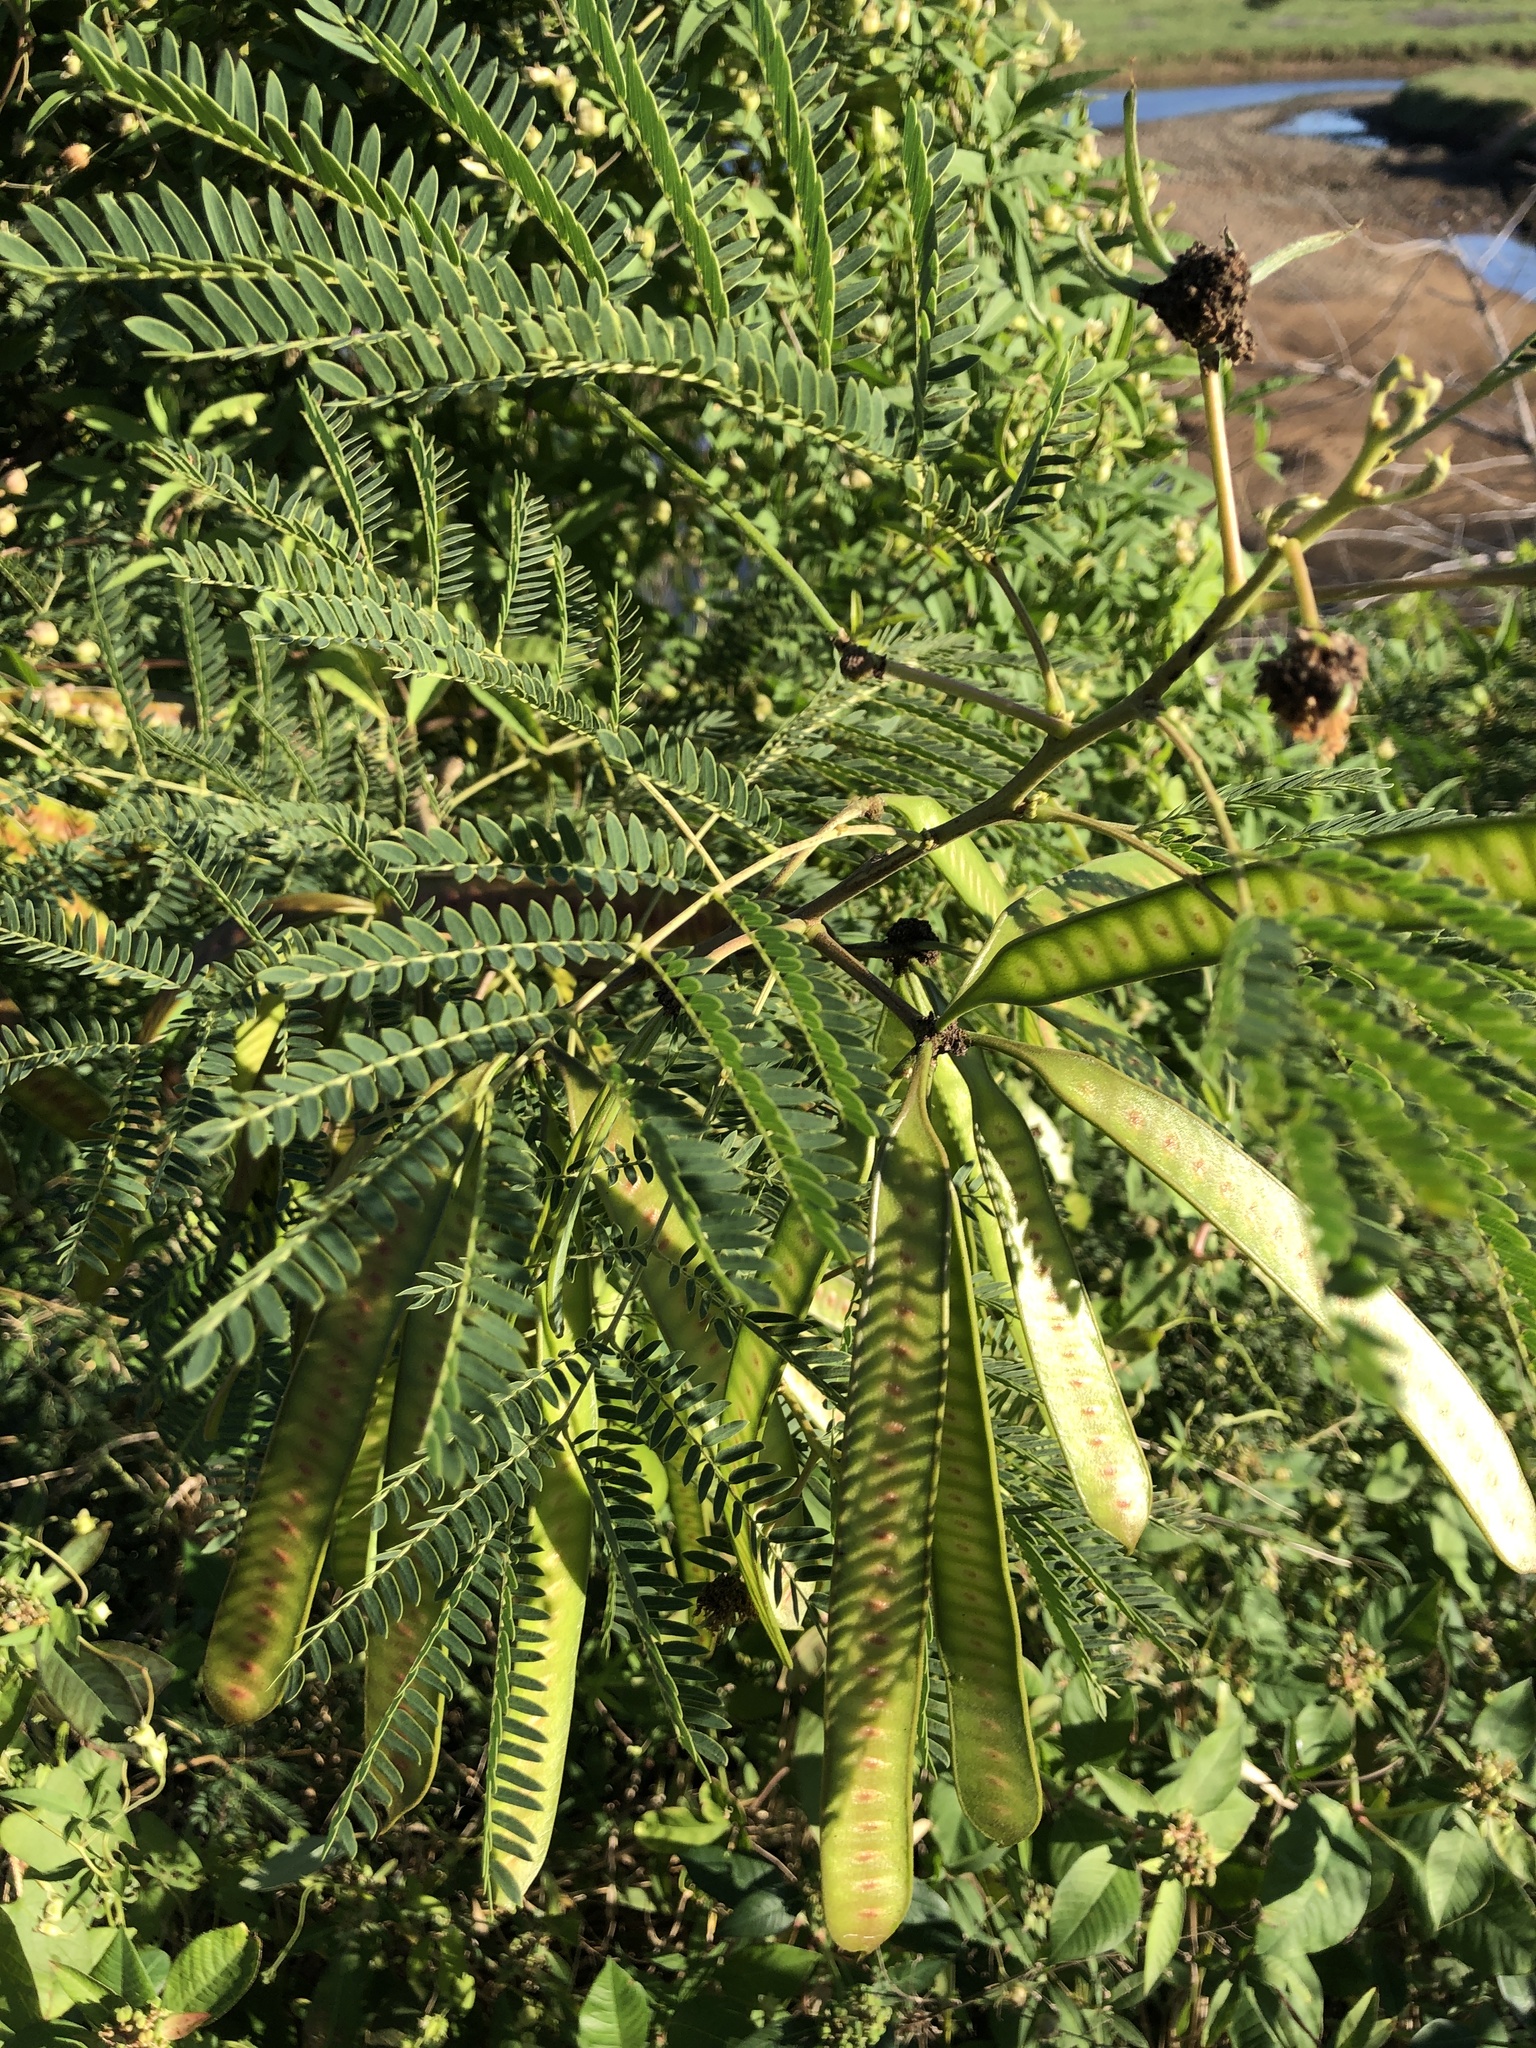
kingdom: Plantae
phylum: Tracheophyta
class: Magnoliopsida
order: Fabales
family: Fabaceae
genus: Leucaena
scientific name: Leucaena leucocephala
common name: White leadtree
